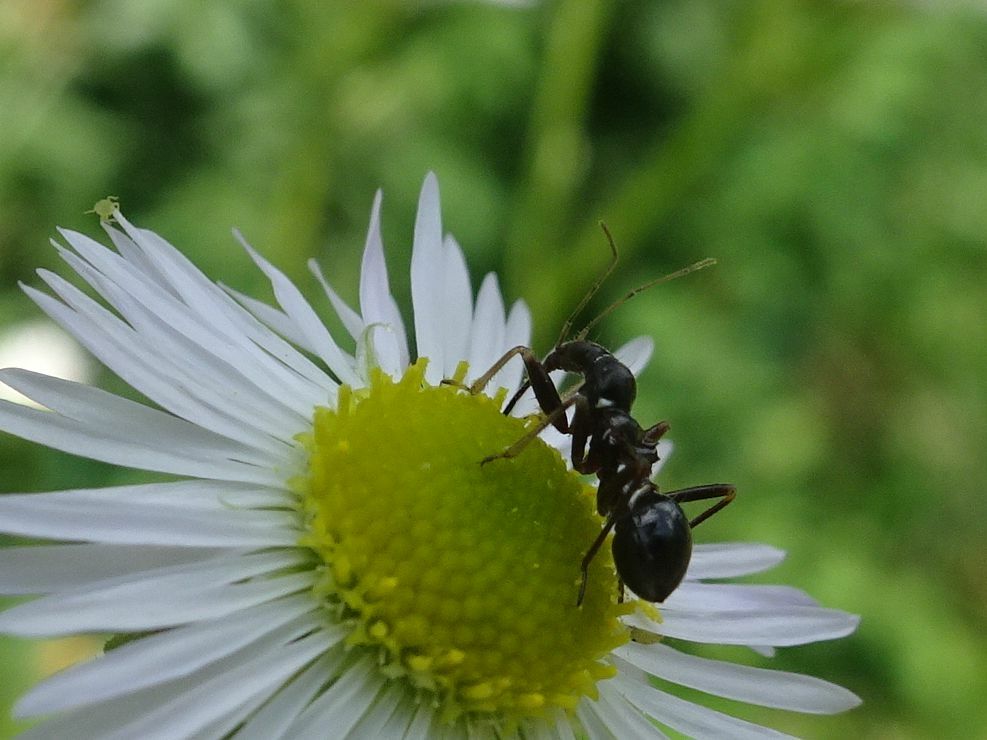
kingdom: Animalia
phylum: Arthropoda
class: Insecta
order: Hemiptera
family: Nabidae
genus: Himacerus
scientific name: Himacerus mirmicoides
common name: Ant damsel bug
